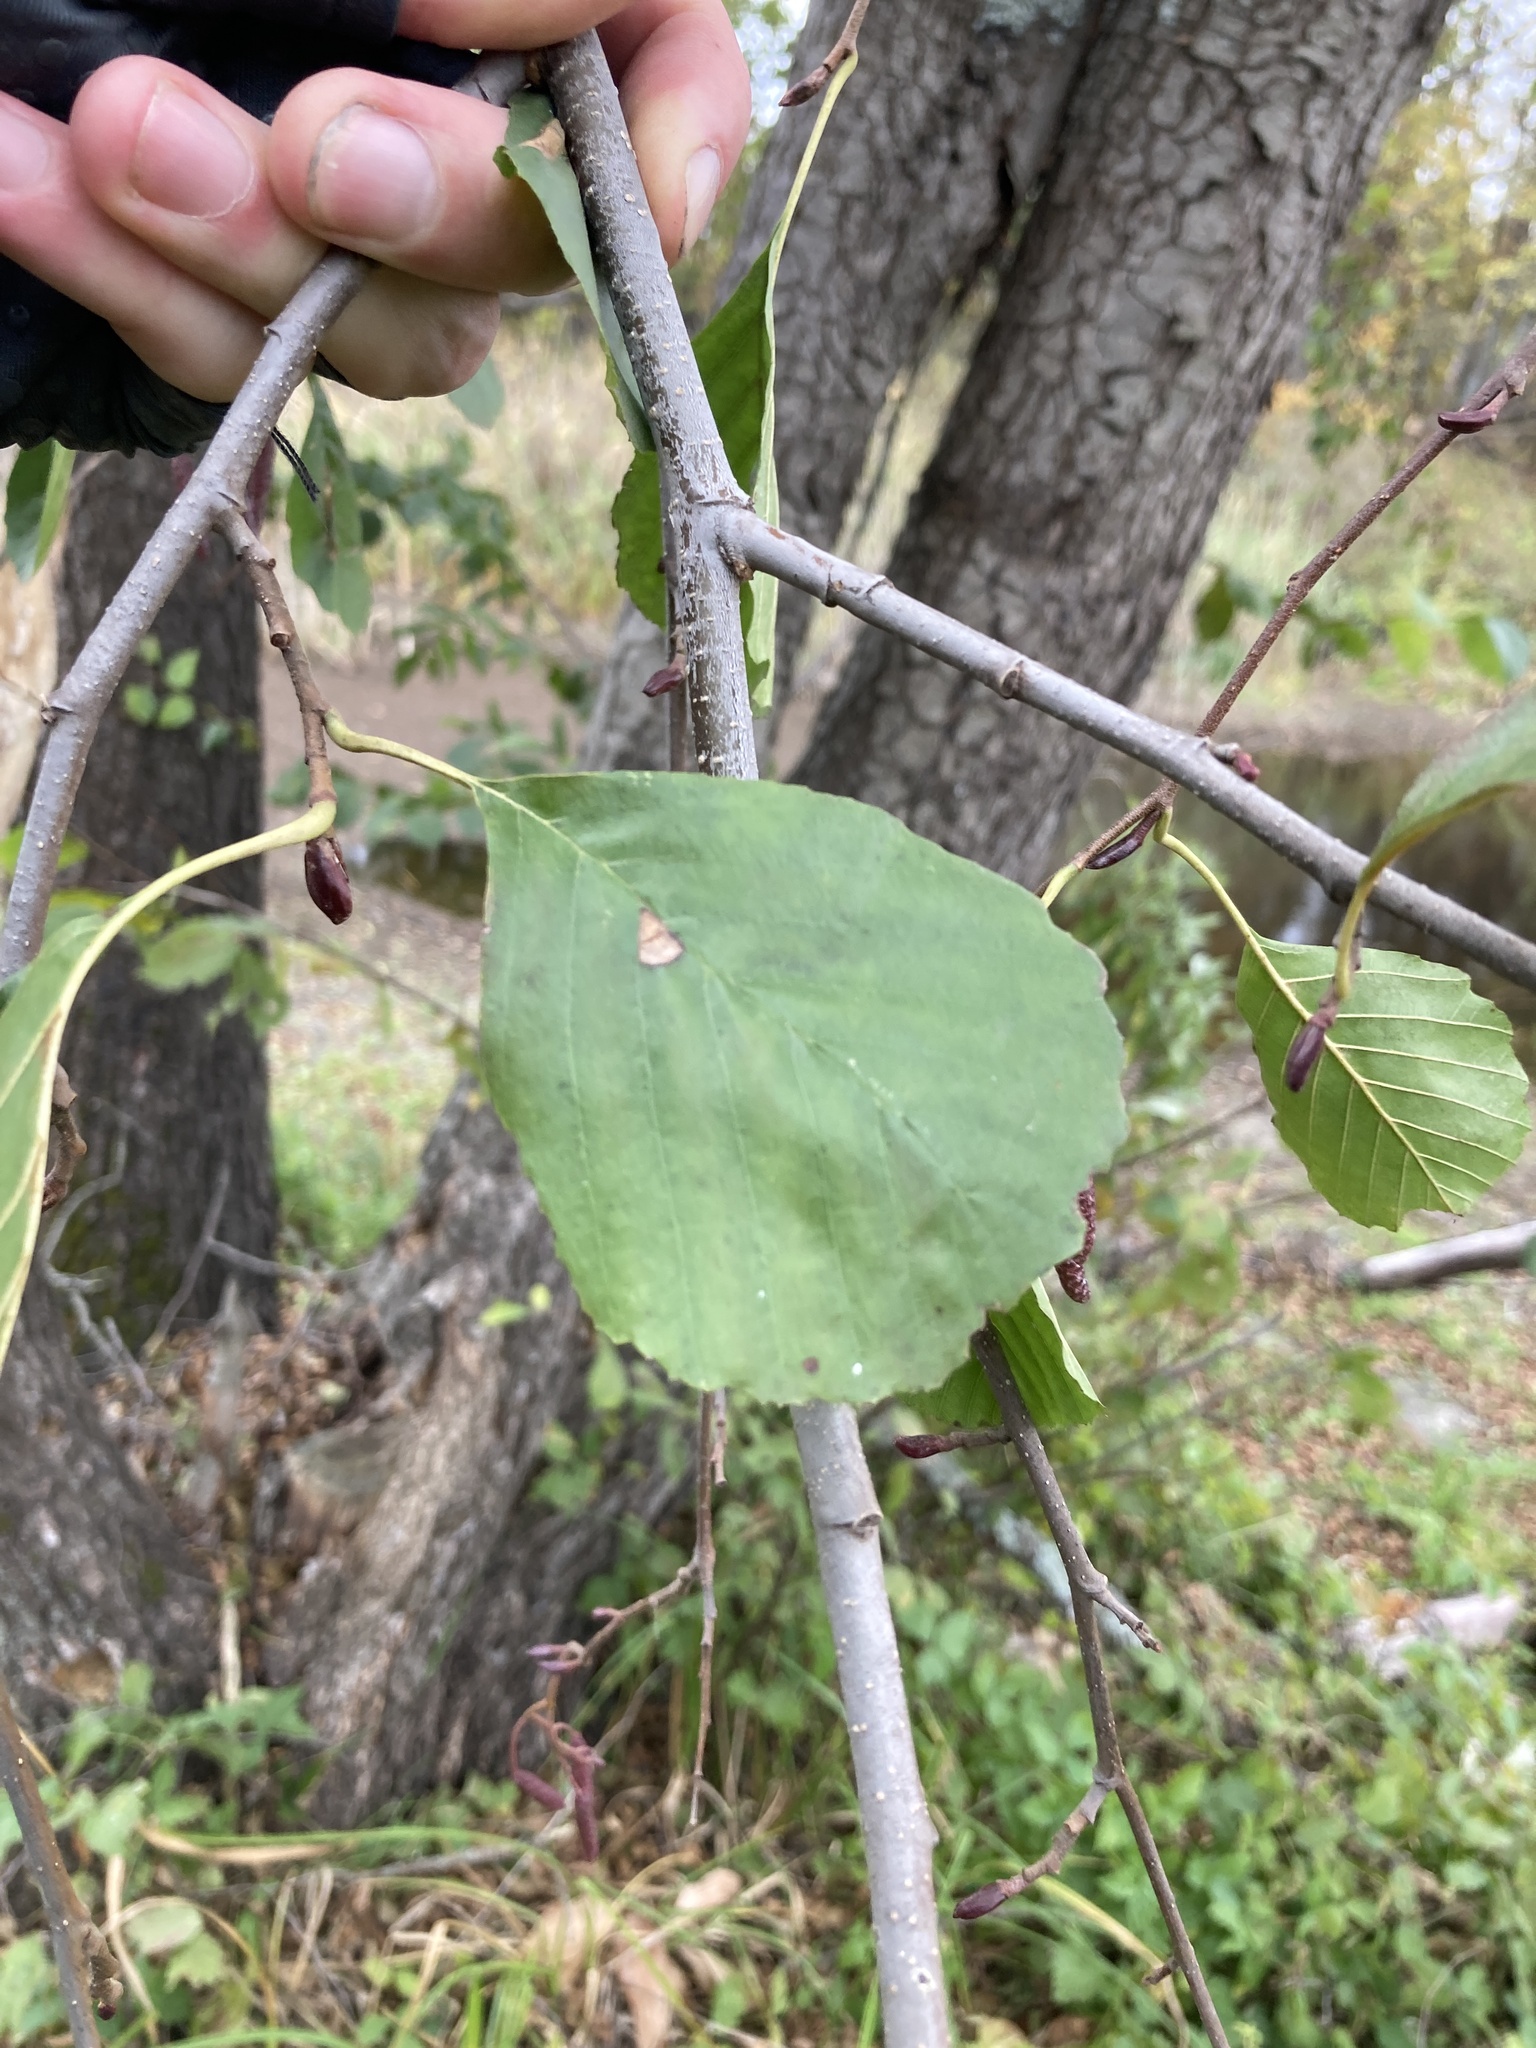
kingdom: Plantae
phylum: Tracheophyta
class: Magnoliopsida
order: Fagales
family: Betulaceae
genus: Alnus
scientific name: Alnus glutinosa
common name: Black alder
